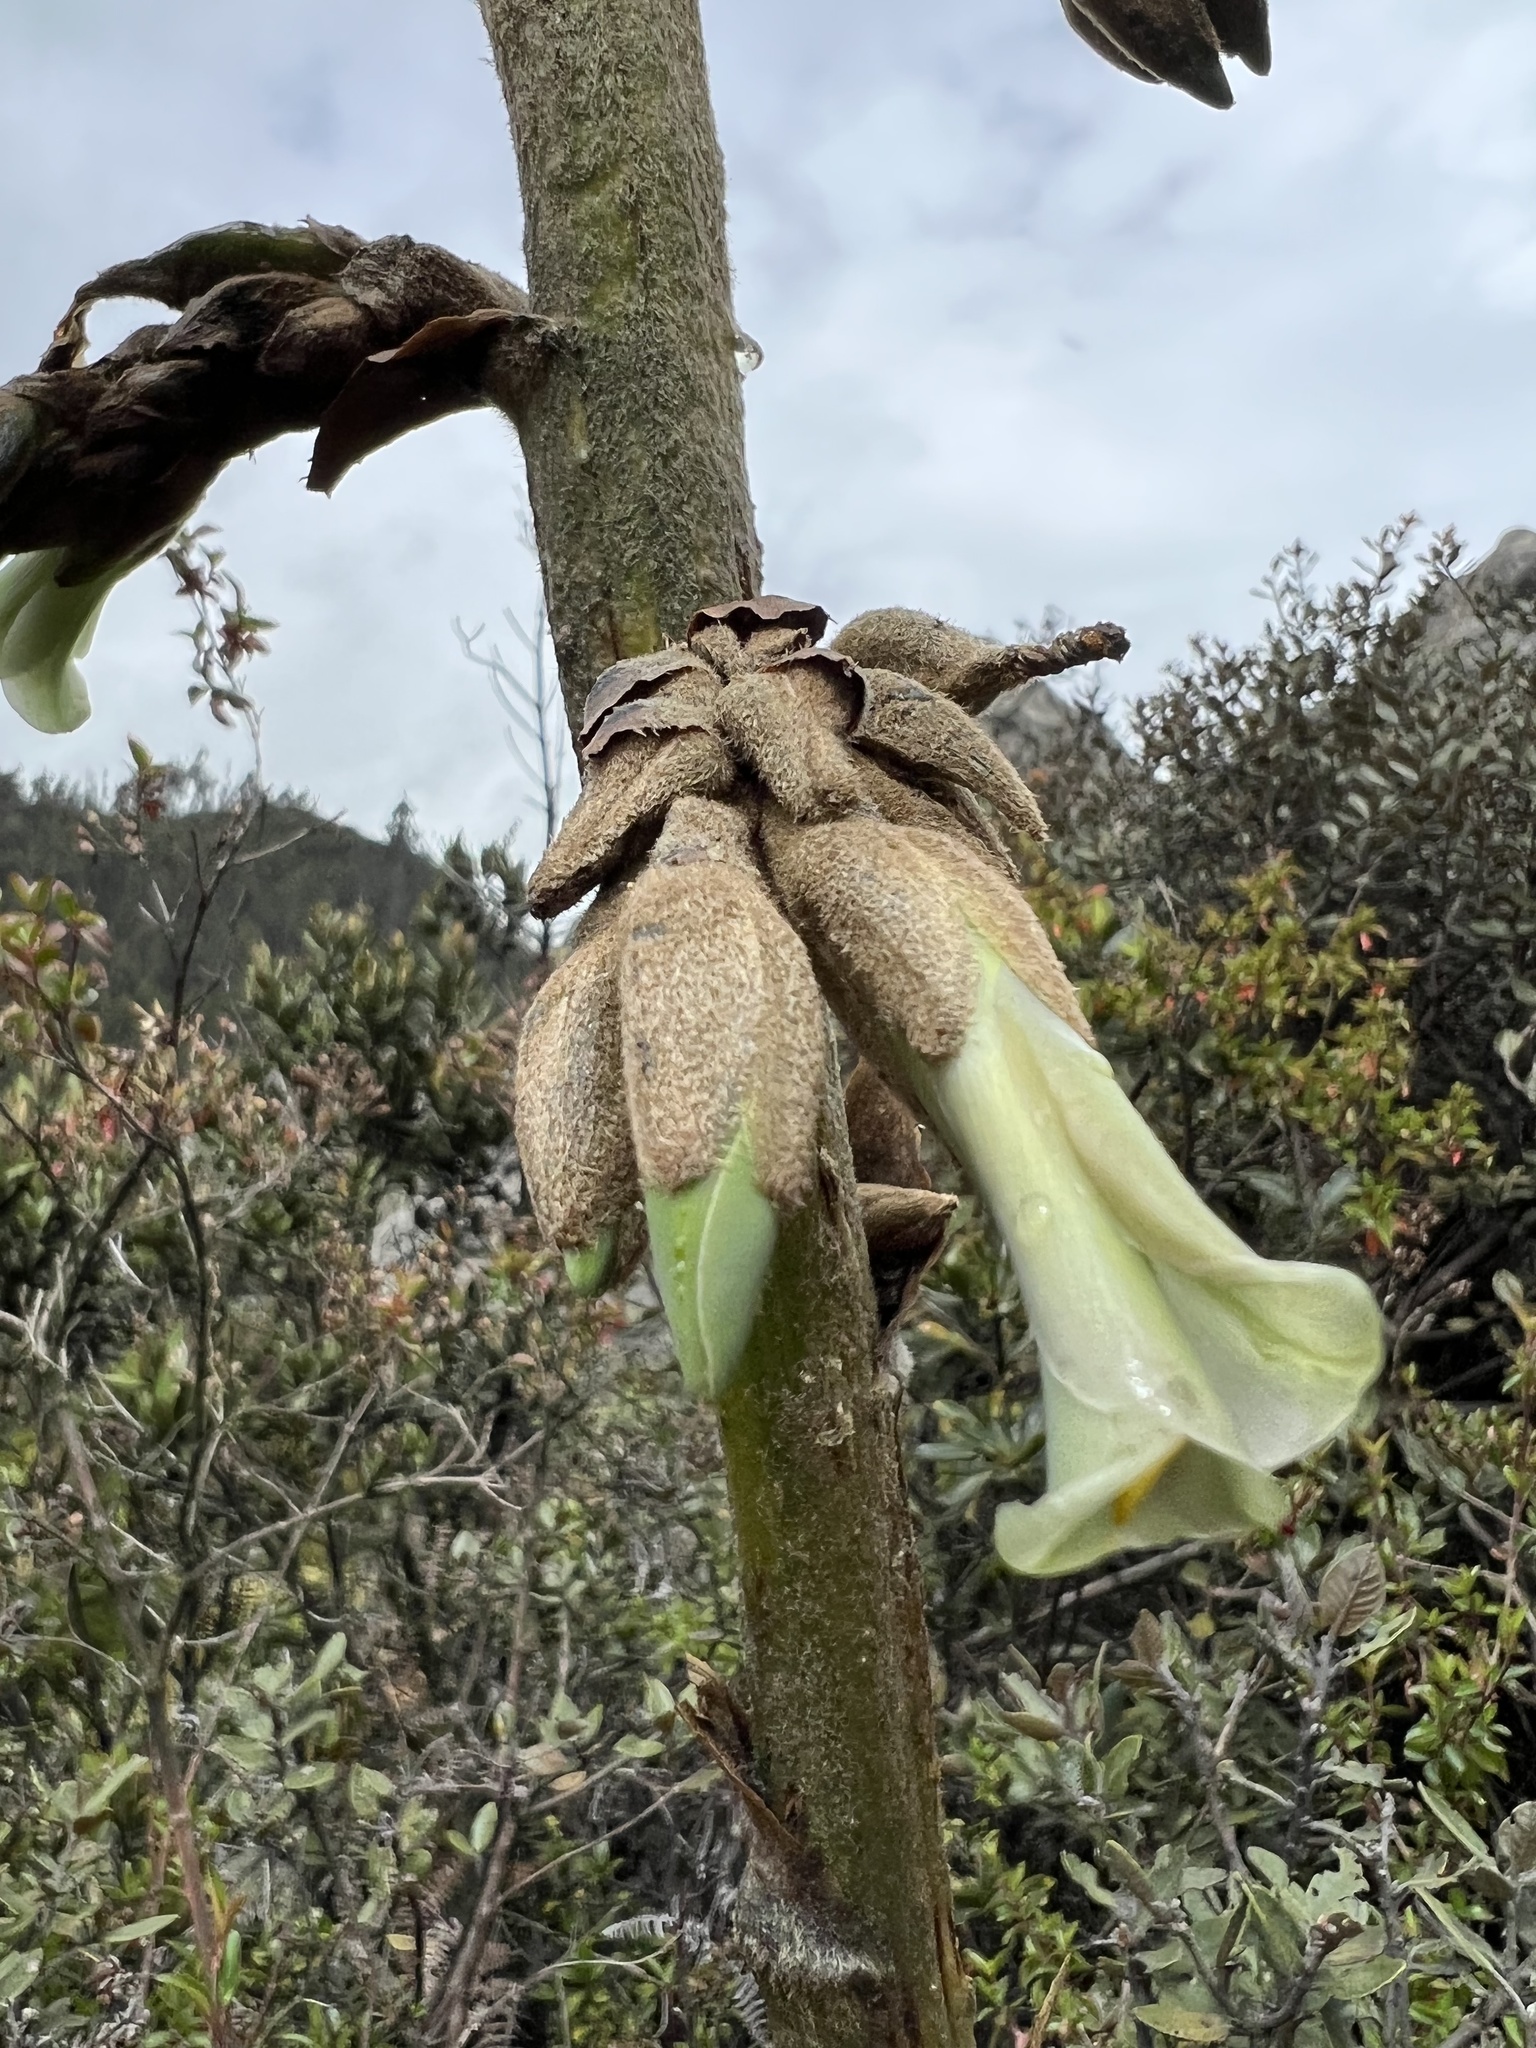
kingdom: Plantae
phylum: Tracheophyta
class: Liliopsida
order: Poales
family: Bromeliaceae
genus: Puya
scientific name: Puya bicolor
